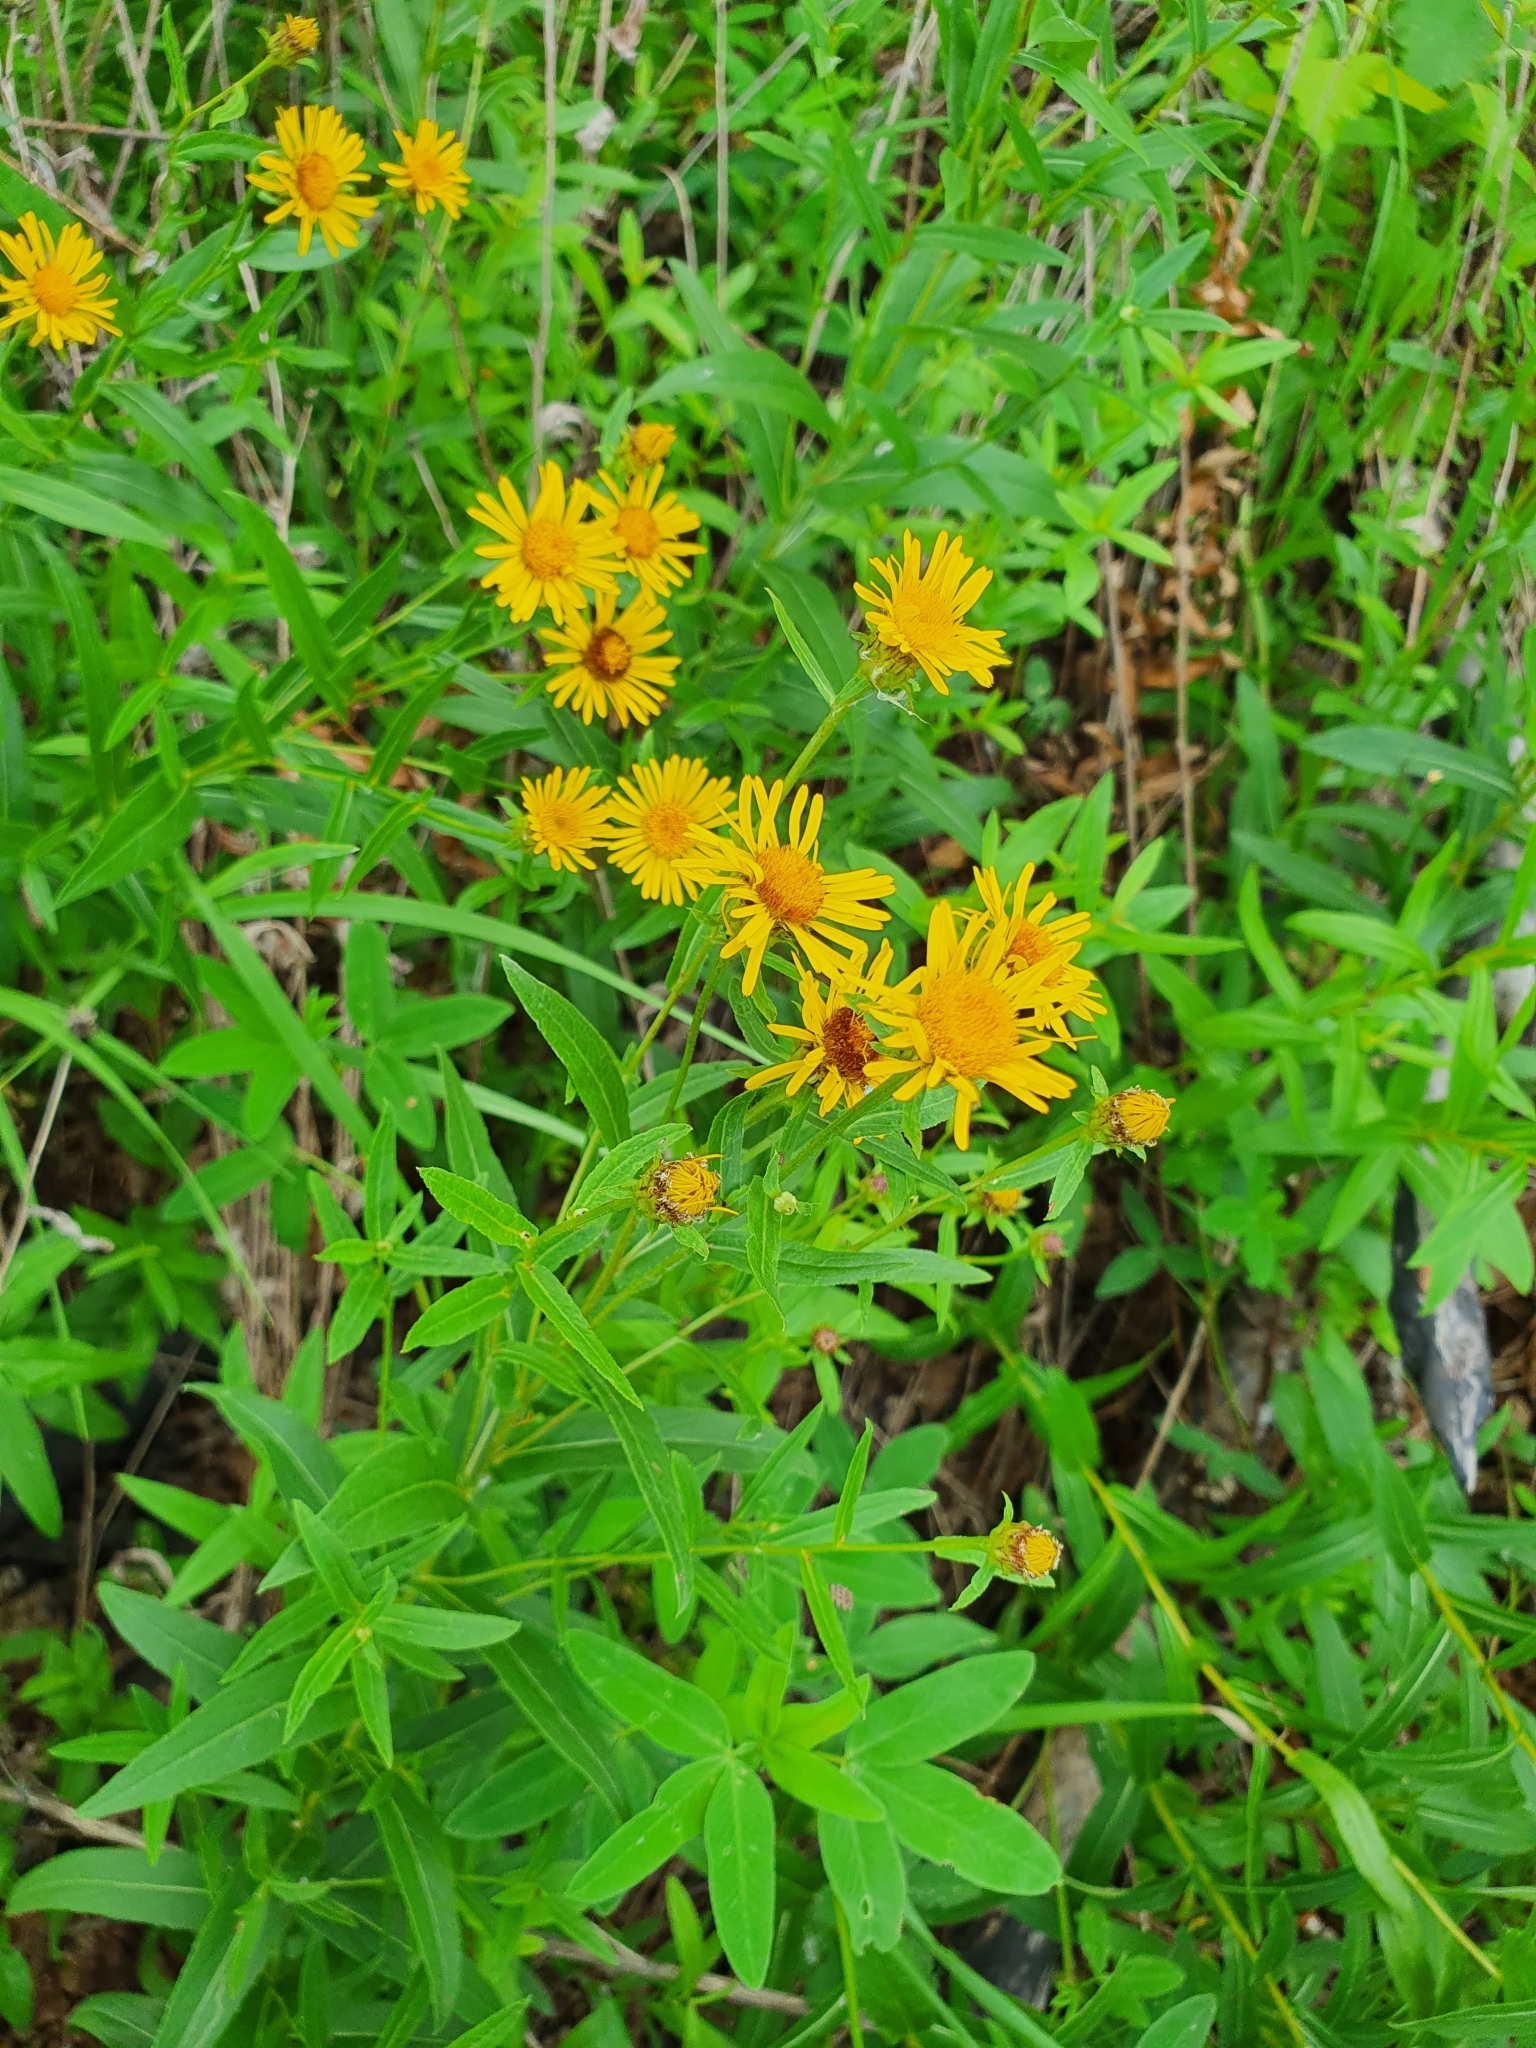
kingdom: Plantae
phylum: Tracheophyta
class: Magnoliopsida
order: Asterales
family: Asteraceae
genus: Pentanema
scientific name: Pentanema salicinum
